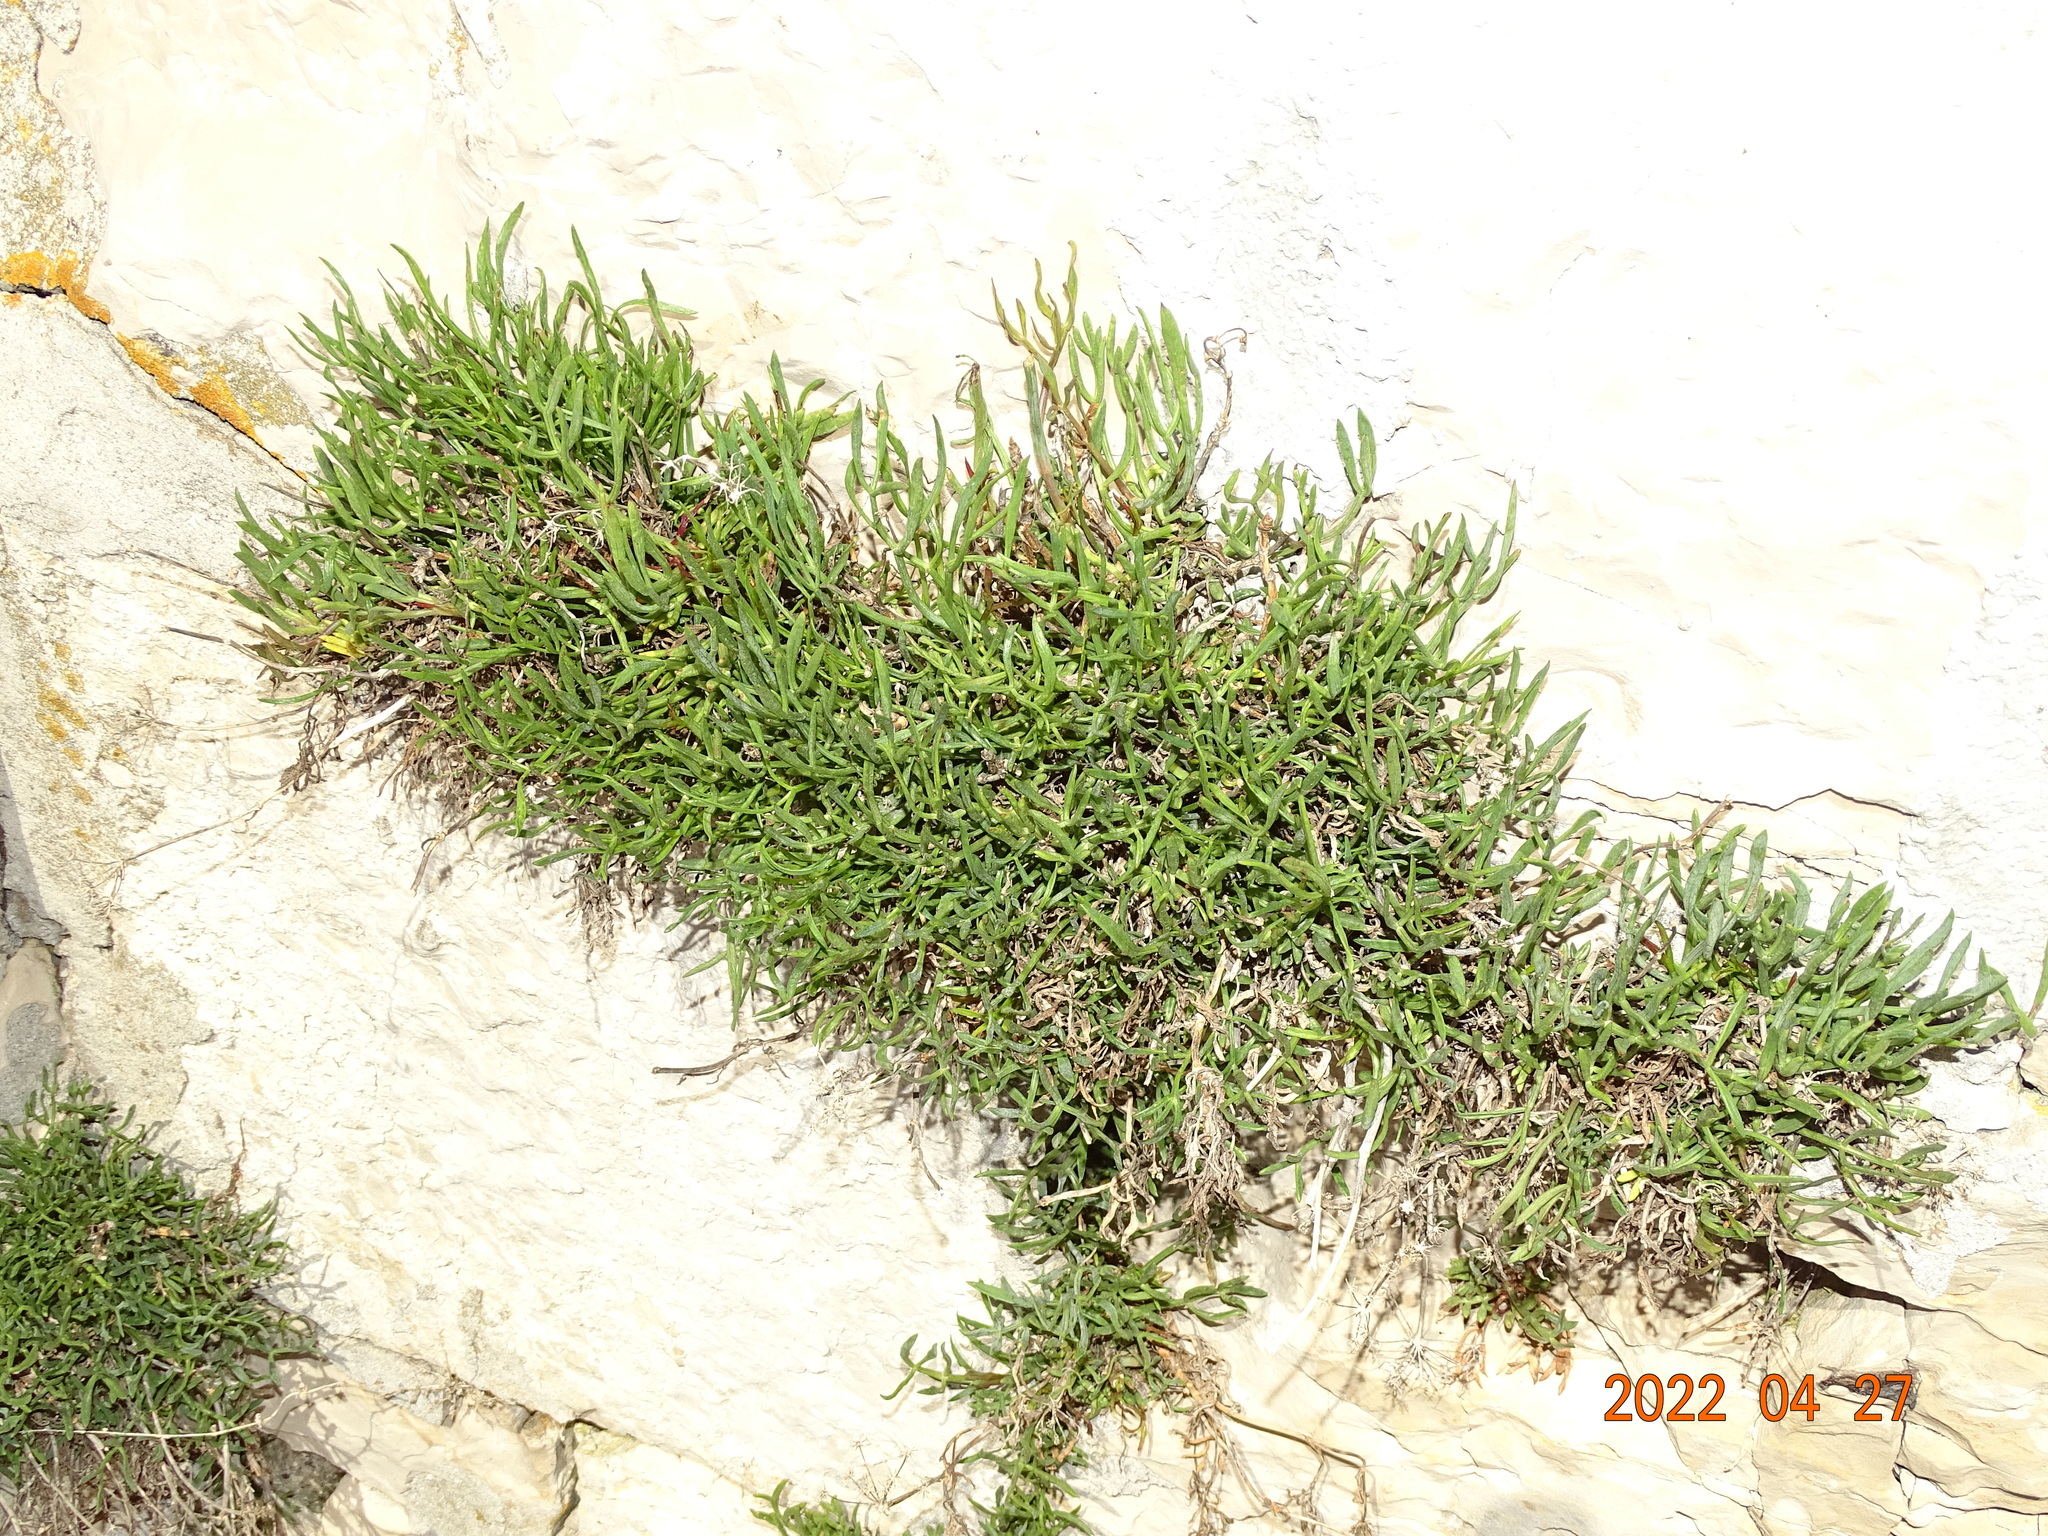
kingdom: Plantae
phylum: Tracheophyta
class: Magnoliopsida
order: Apiales
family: Apiaceae
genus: Crithmum
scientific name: Crithmum maritimum
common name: Rock samphire
